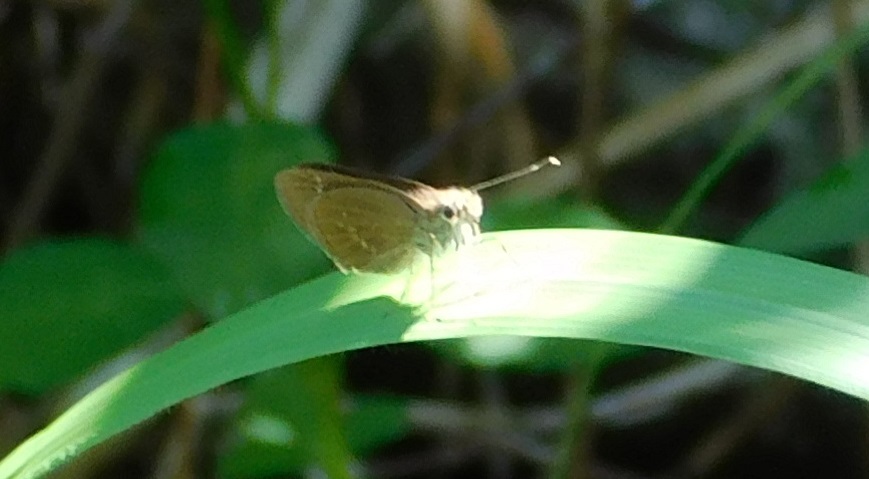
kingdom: Animalia
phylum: Arthropoda
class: Insecta
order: Lepidoptera
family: Hesperiidae
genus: Cymaenes
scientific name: Cymaenes tripunctus
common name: Dingy dotted skipper
